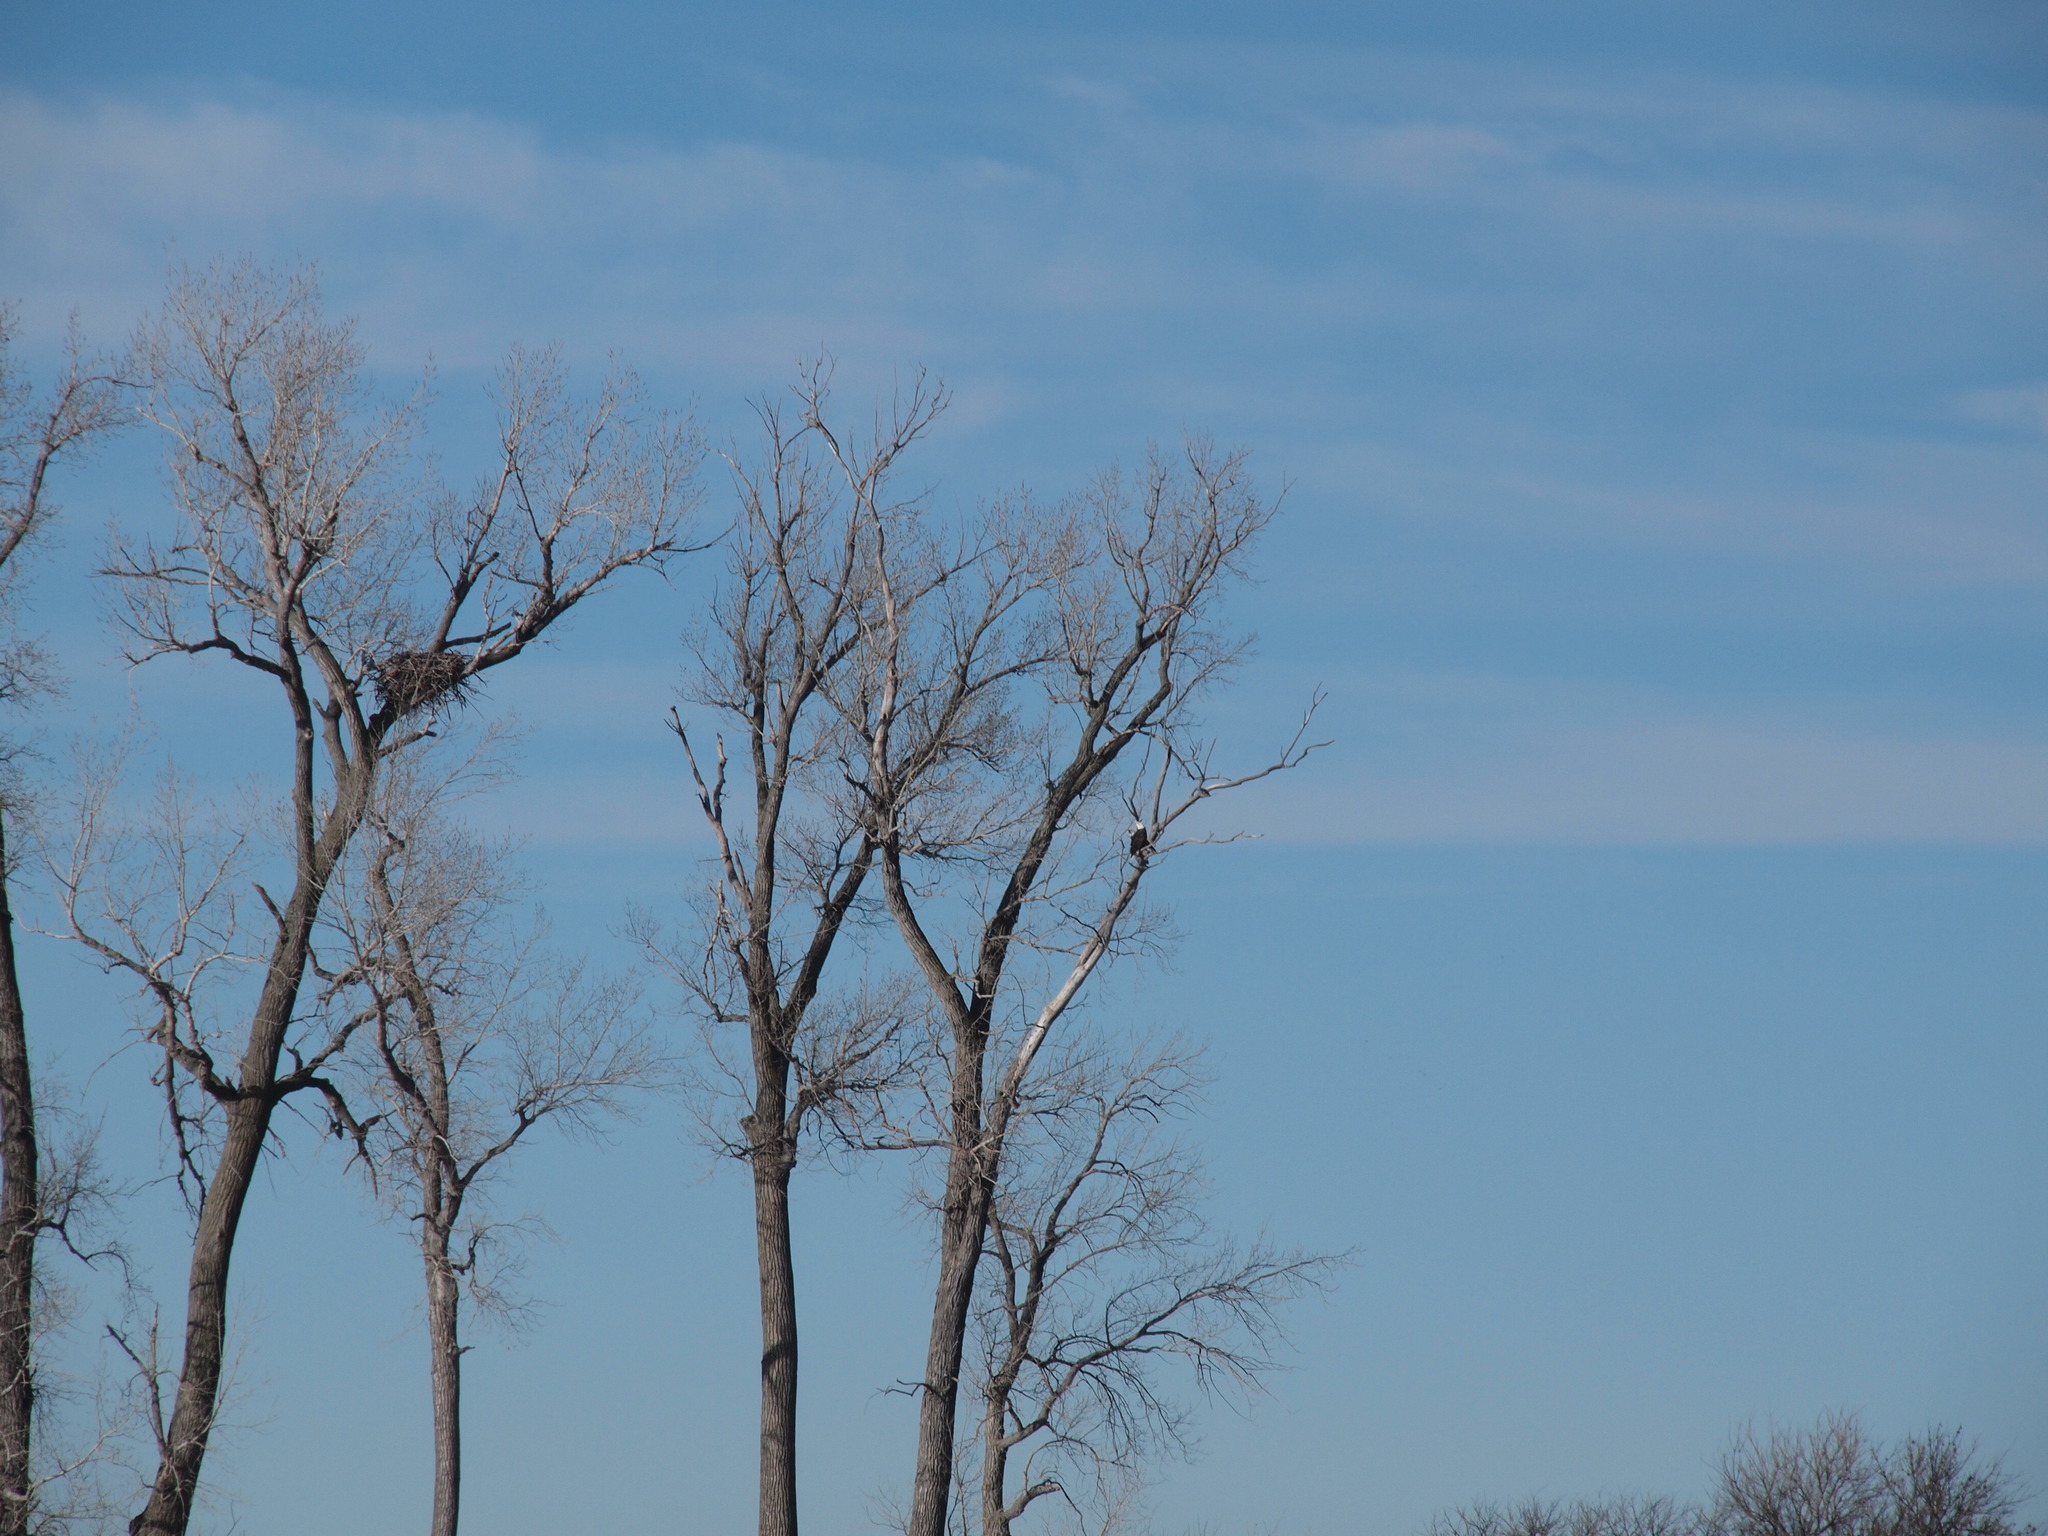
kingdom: Animalia
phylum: Chordata
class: Aves
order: Accipitriformes
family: Accipitridae
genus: Haliaeetus
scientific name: Haliaeetus leucocephalus
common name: Bald eagle
